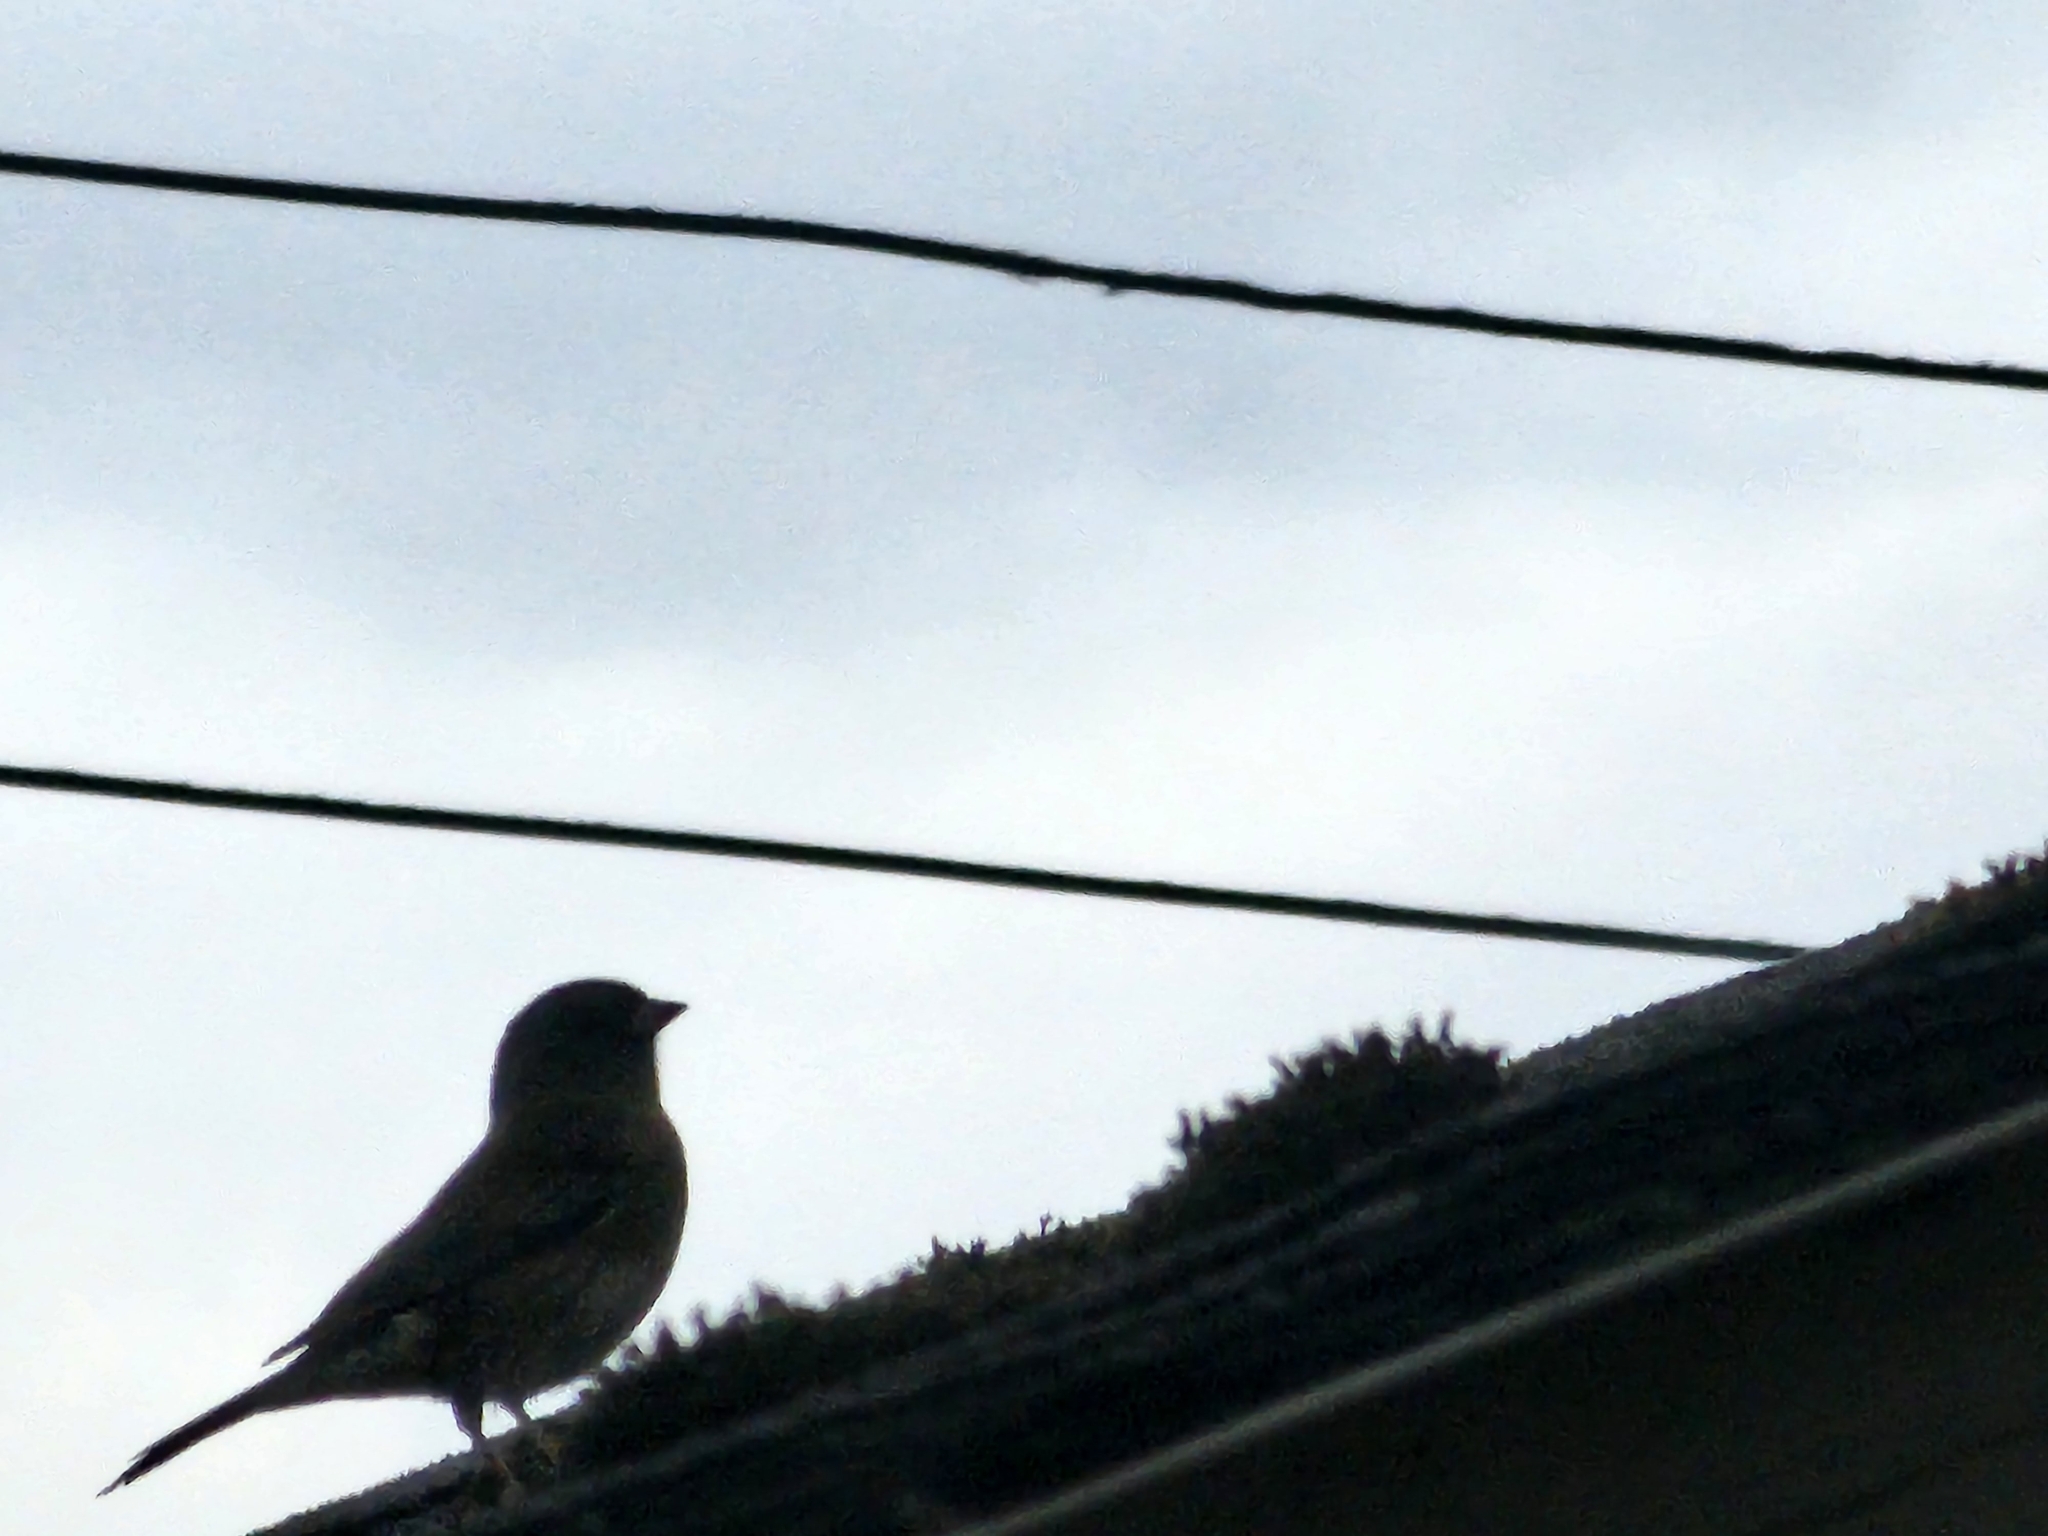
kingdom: Animalia
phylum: Chordata
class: Aves
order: Passeriformes
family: Passerellidae
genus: Junco
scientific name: Junco hyemalis
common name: Dark-eyed junco
